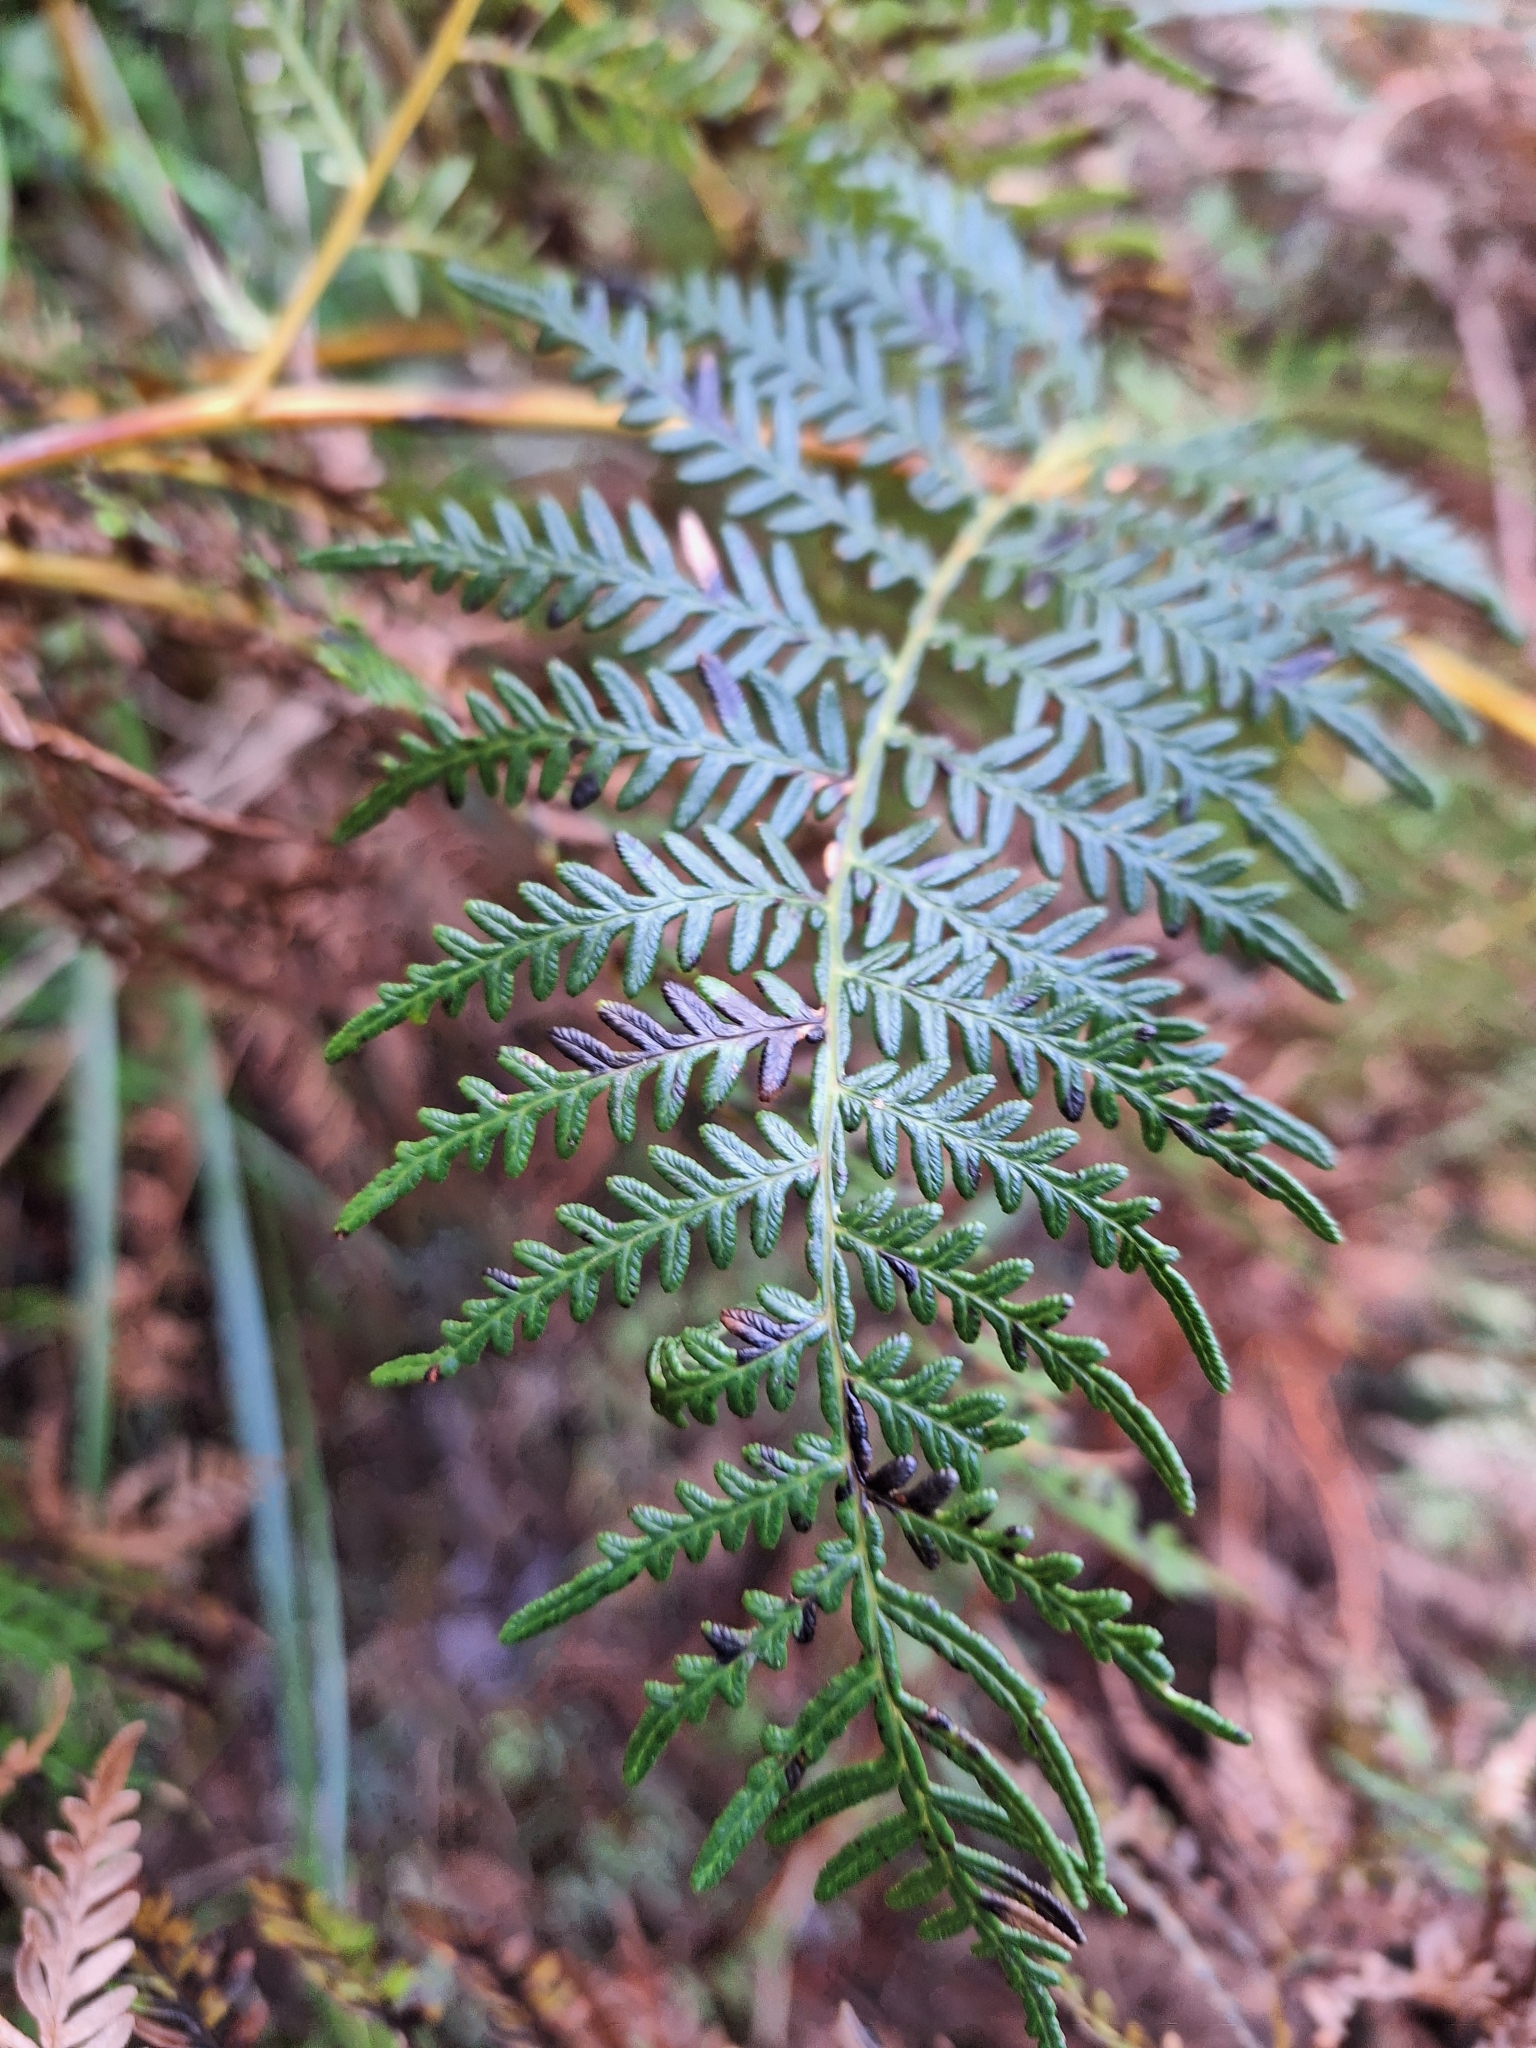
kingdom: Plantae
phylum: Tracheophyta
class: Polypodiopsida
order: Polypodiales
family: Dennstaedtiaceae
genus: Pteridium
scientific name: Pteridium esculentum
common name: Bracken fern
